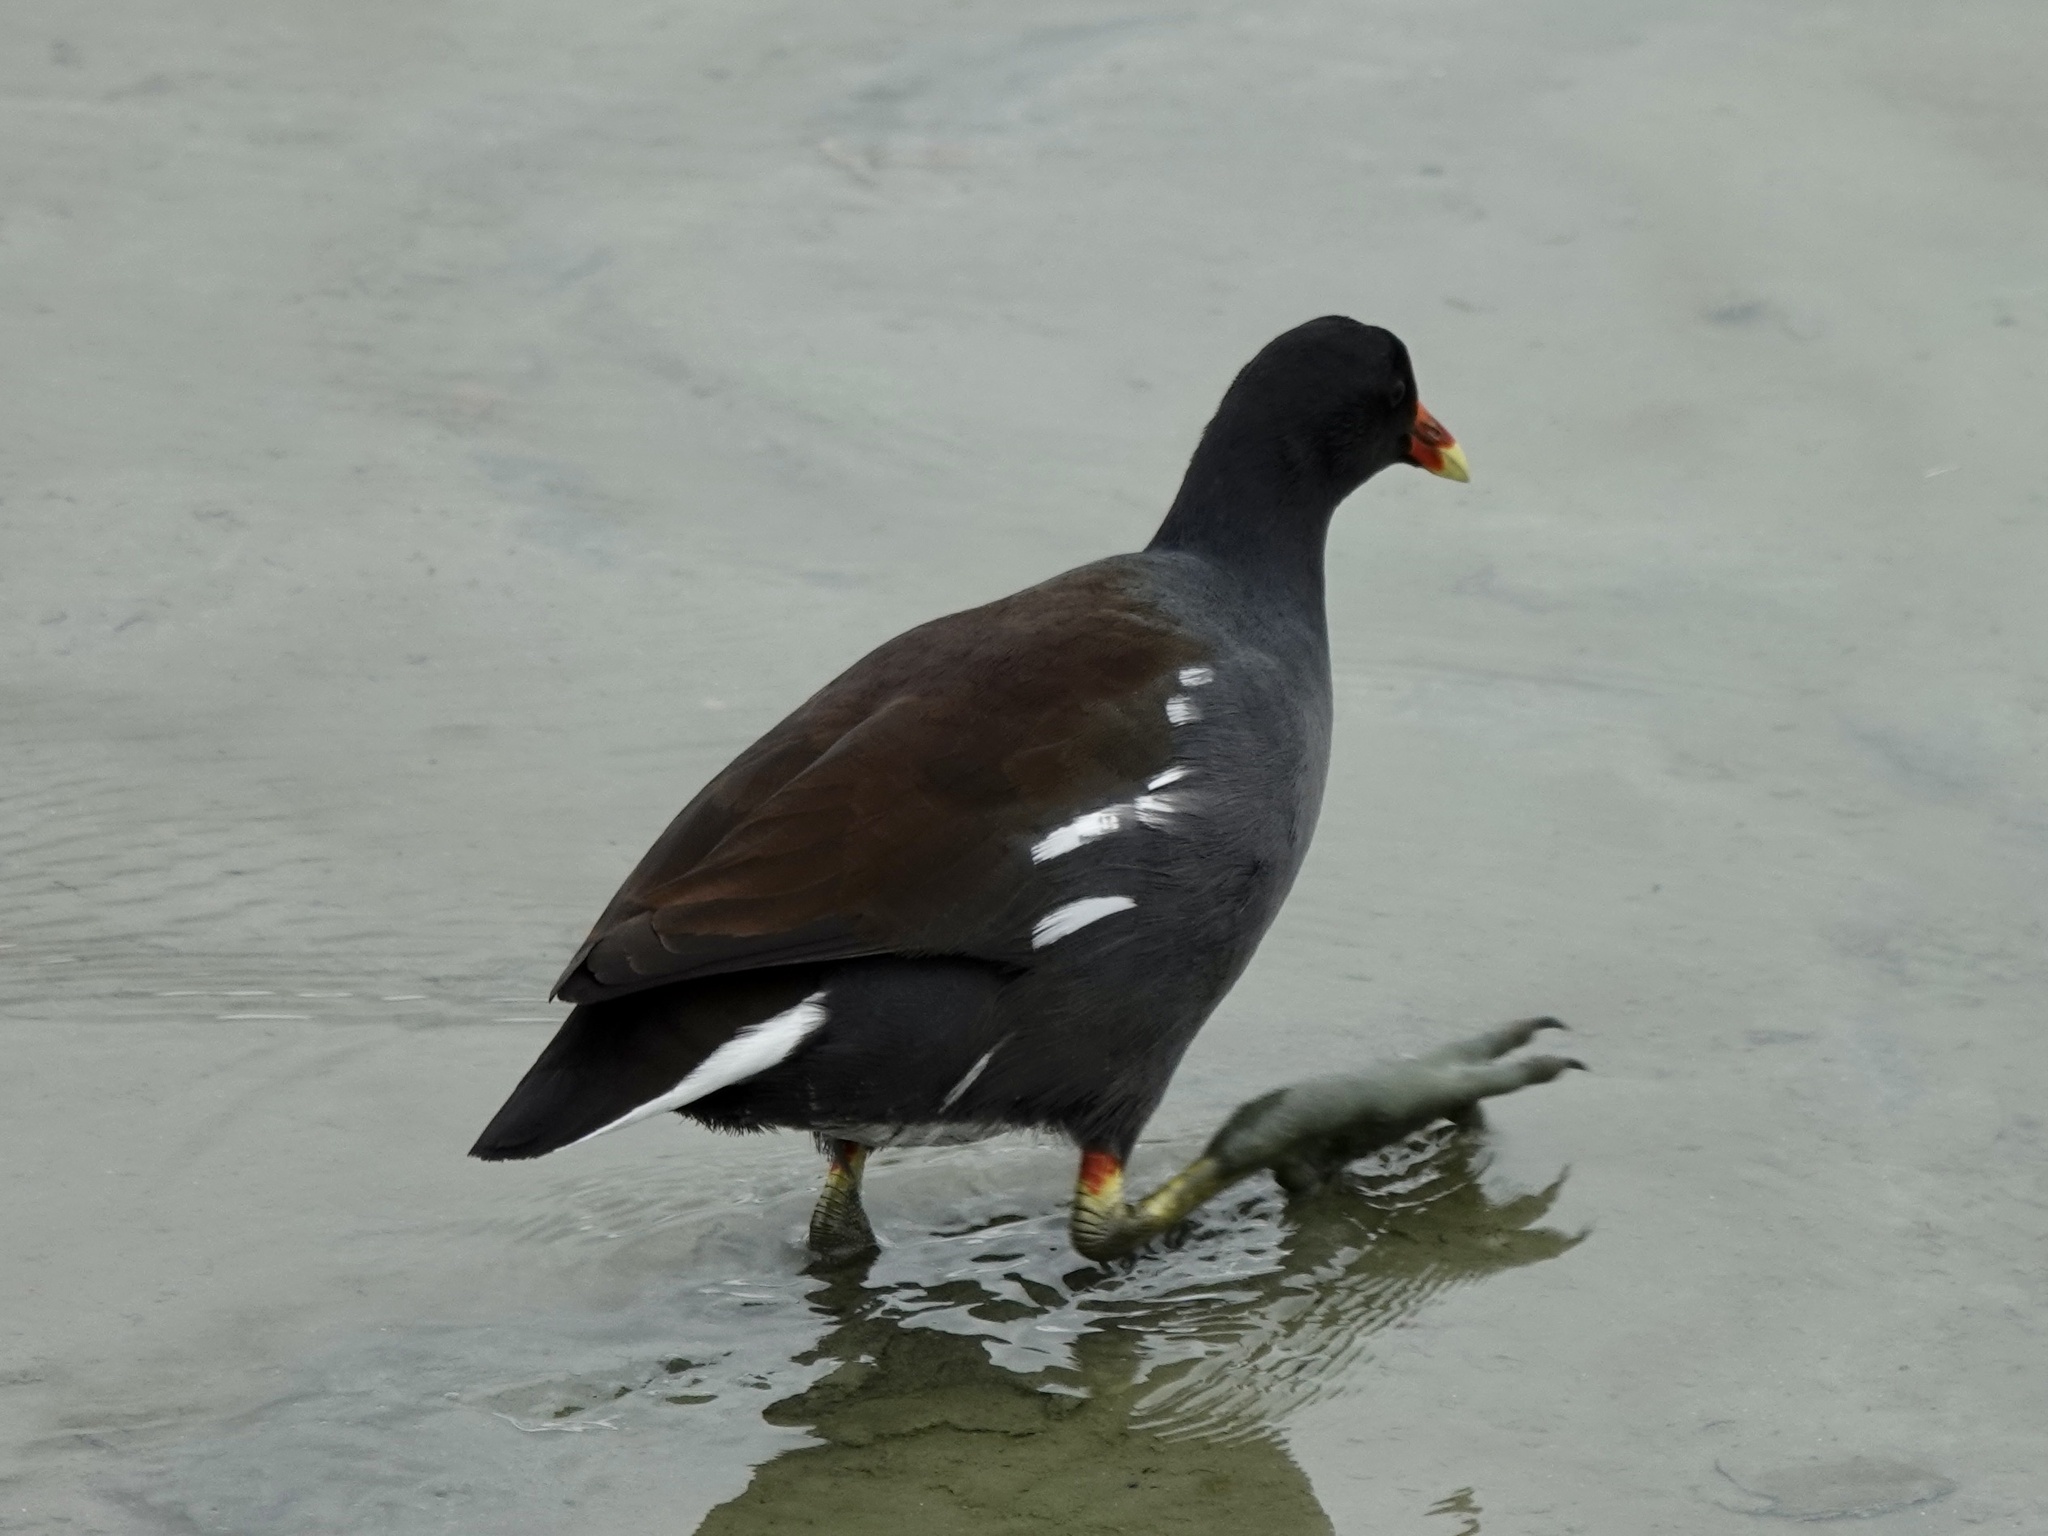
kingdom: Animalia
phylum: Chordata
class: Aves
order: Gruiformes
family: Rallidae
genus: Gallinula
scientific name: Gallinula chloropus
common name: Common moorhen
